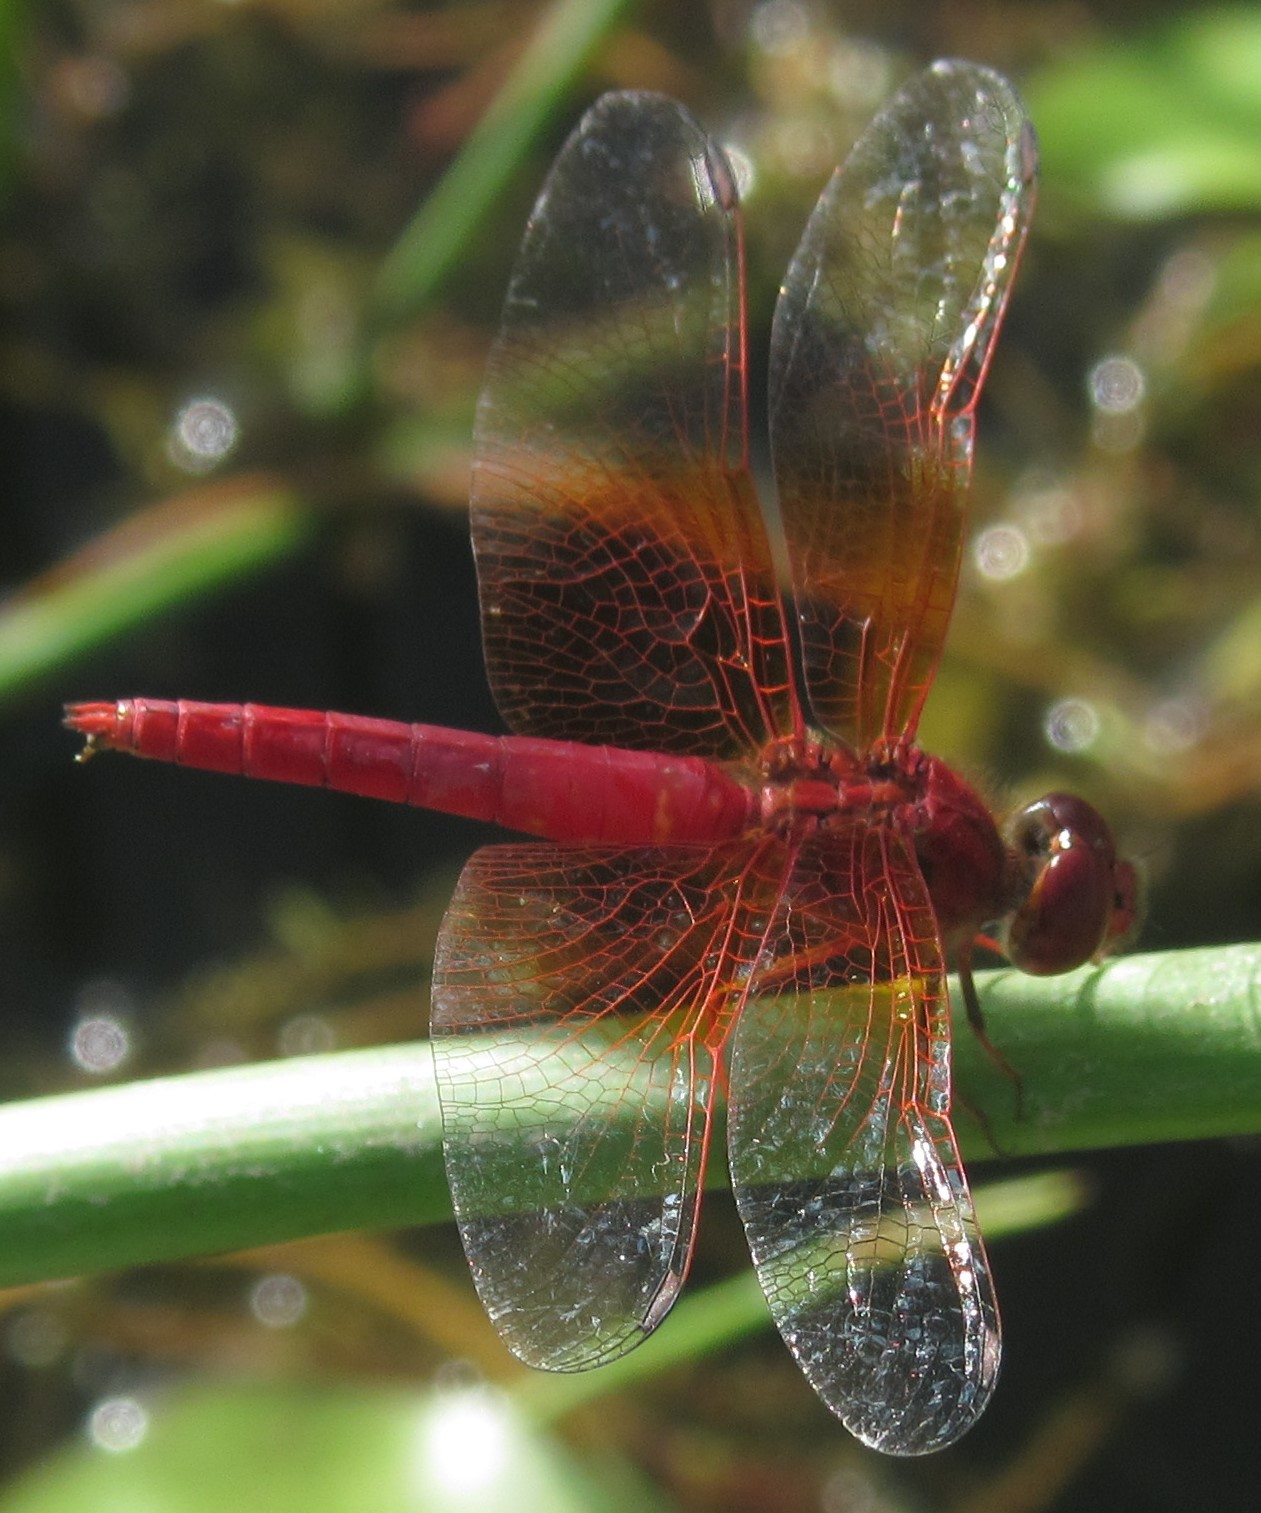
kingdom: Animalia
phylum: Arthropoda
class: Insecta
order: Odonata
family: Libellulidae
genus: Brachythemis
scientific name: Brachythemis lacustris
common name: Red groundling
